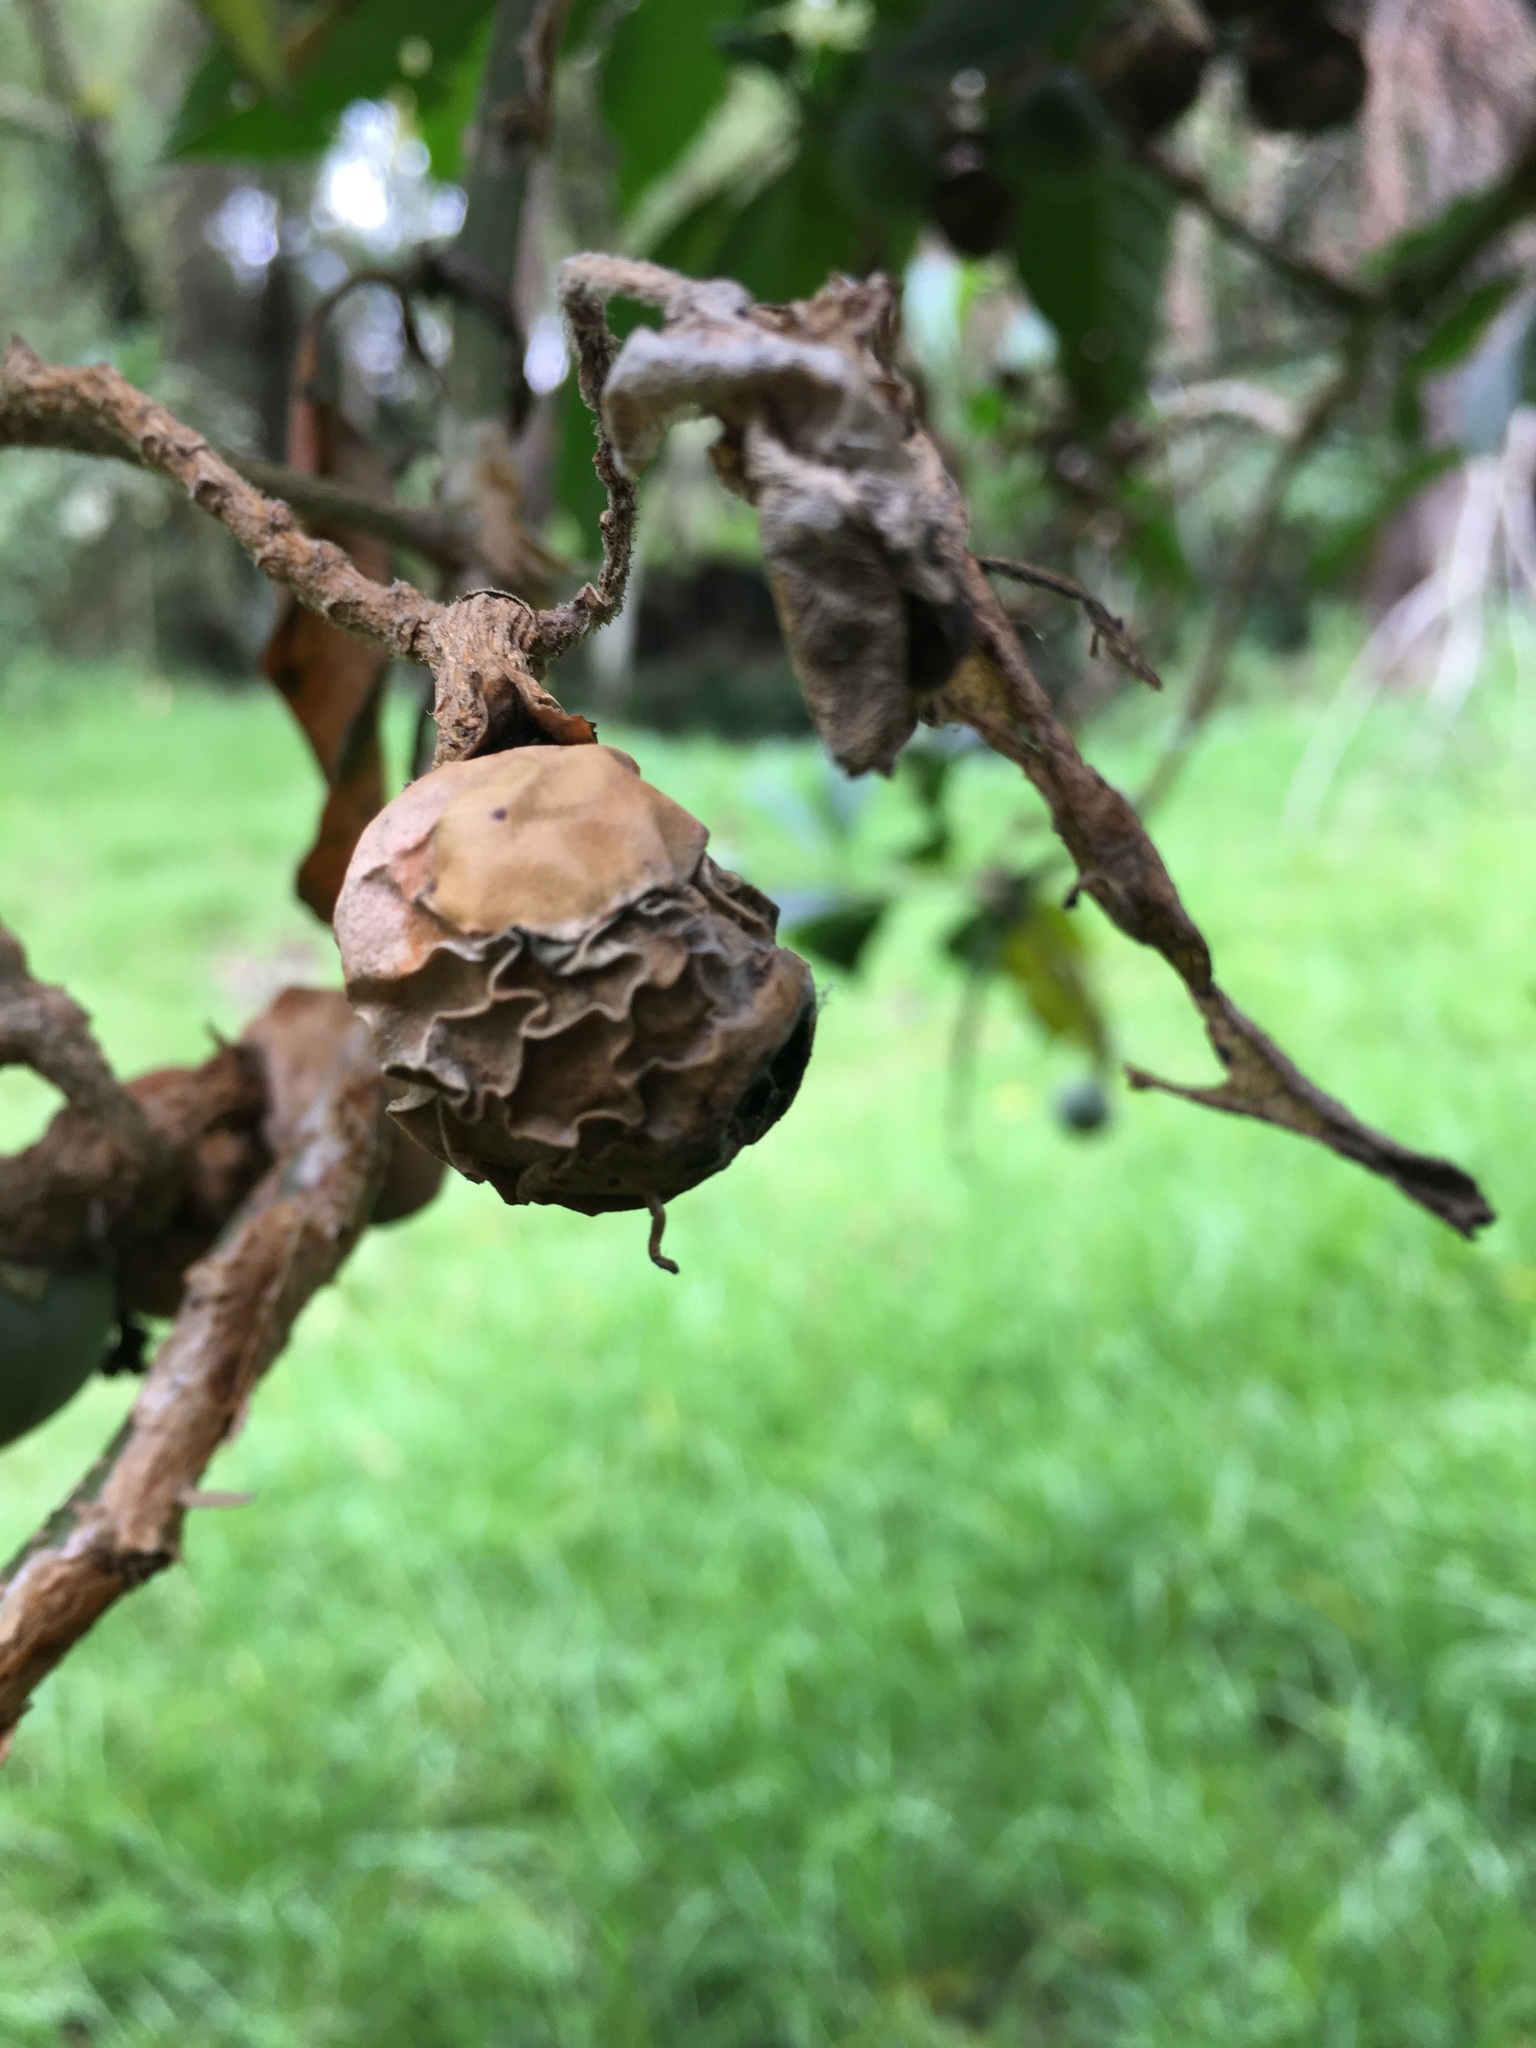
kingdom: Plantae
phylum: Tracheophyta
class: Magnoliopsida
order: Solanales
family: Solanaceae
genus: Solanum
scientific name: Solanum oblongifolium
